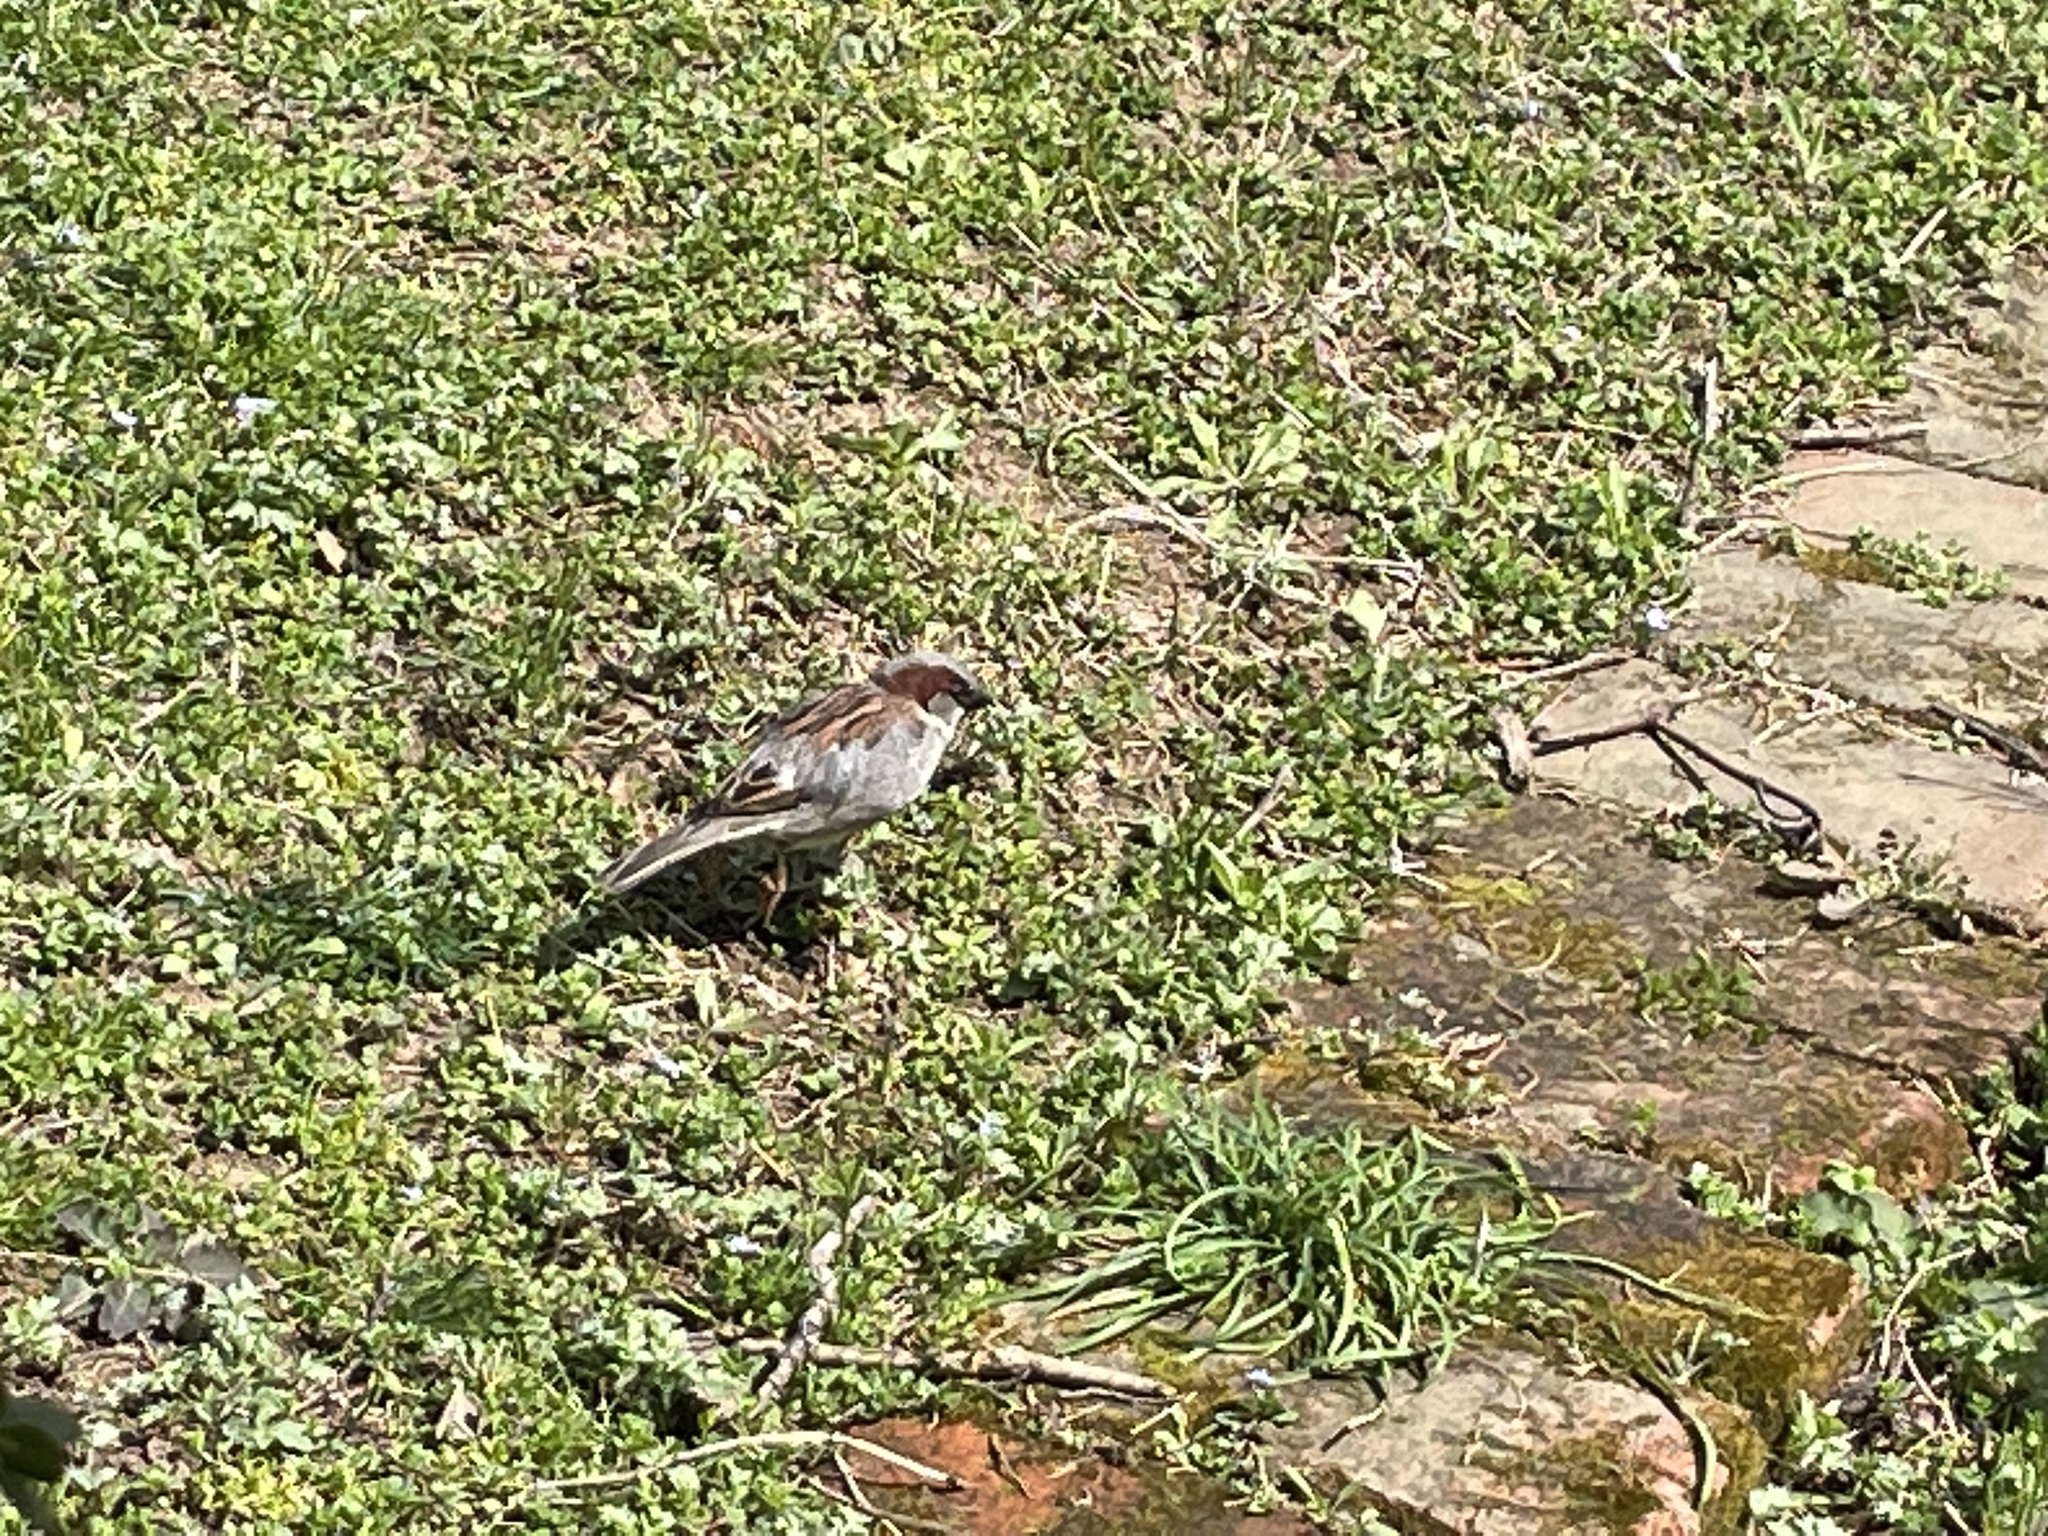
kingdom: Animalia
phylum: Chordata
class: Aves
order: Passeriformes
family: Passeridae
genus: Passer
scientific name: Passer domesticus
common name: House sparrow
